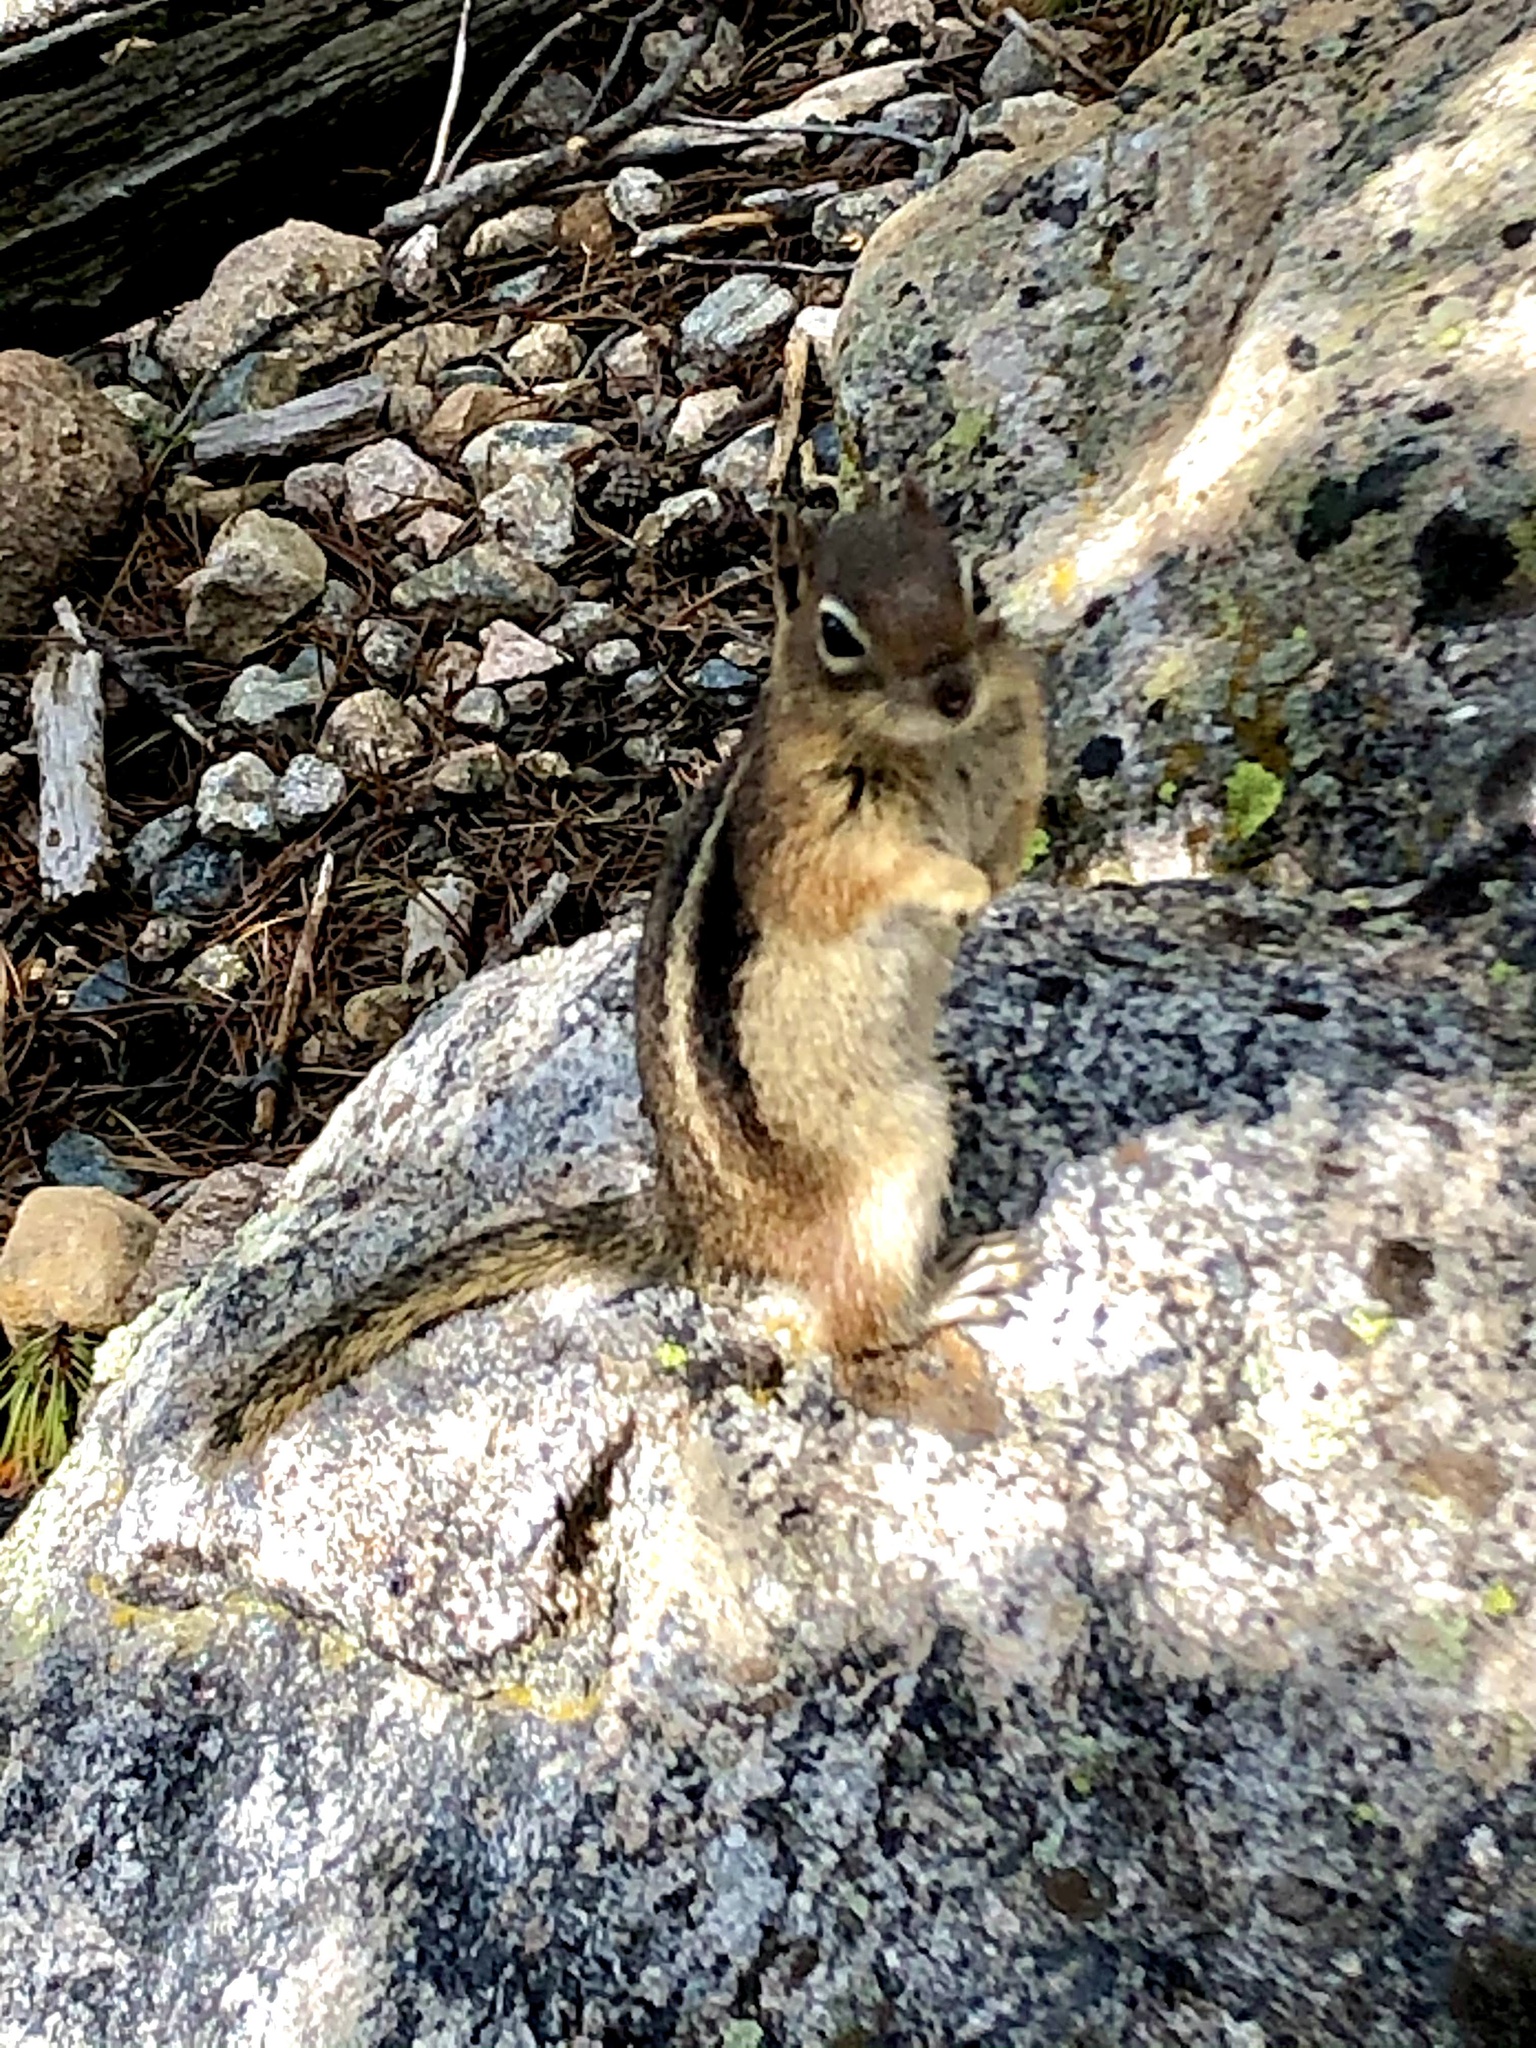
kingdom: Animalia
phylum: Chordata
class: Mammalia
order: Rodentia
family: Sciuridae
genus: Callospermophilus
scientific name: Callospermophilus lateralis
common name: Golden-mantled ground squirrel
